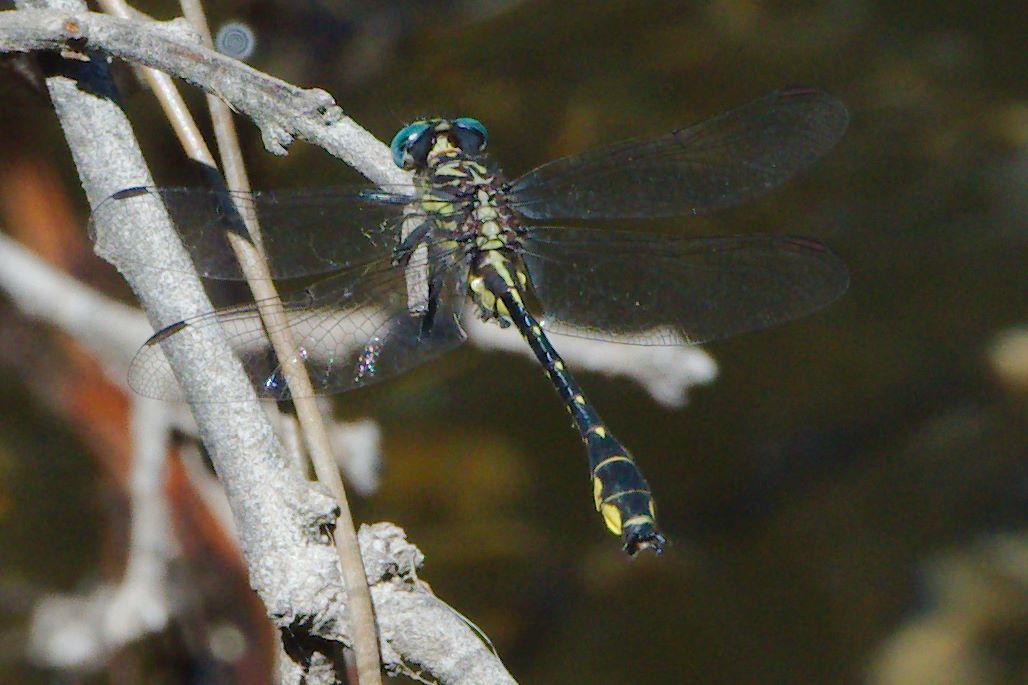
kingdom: Animalia
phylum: Arthropoda
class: Insecta
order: Odonata
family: Gomphidae
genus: Hylogomphus
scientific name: Hylogomphus geminatus
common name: Twin-striped clubtail
